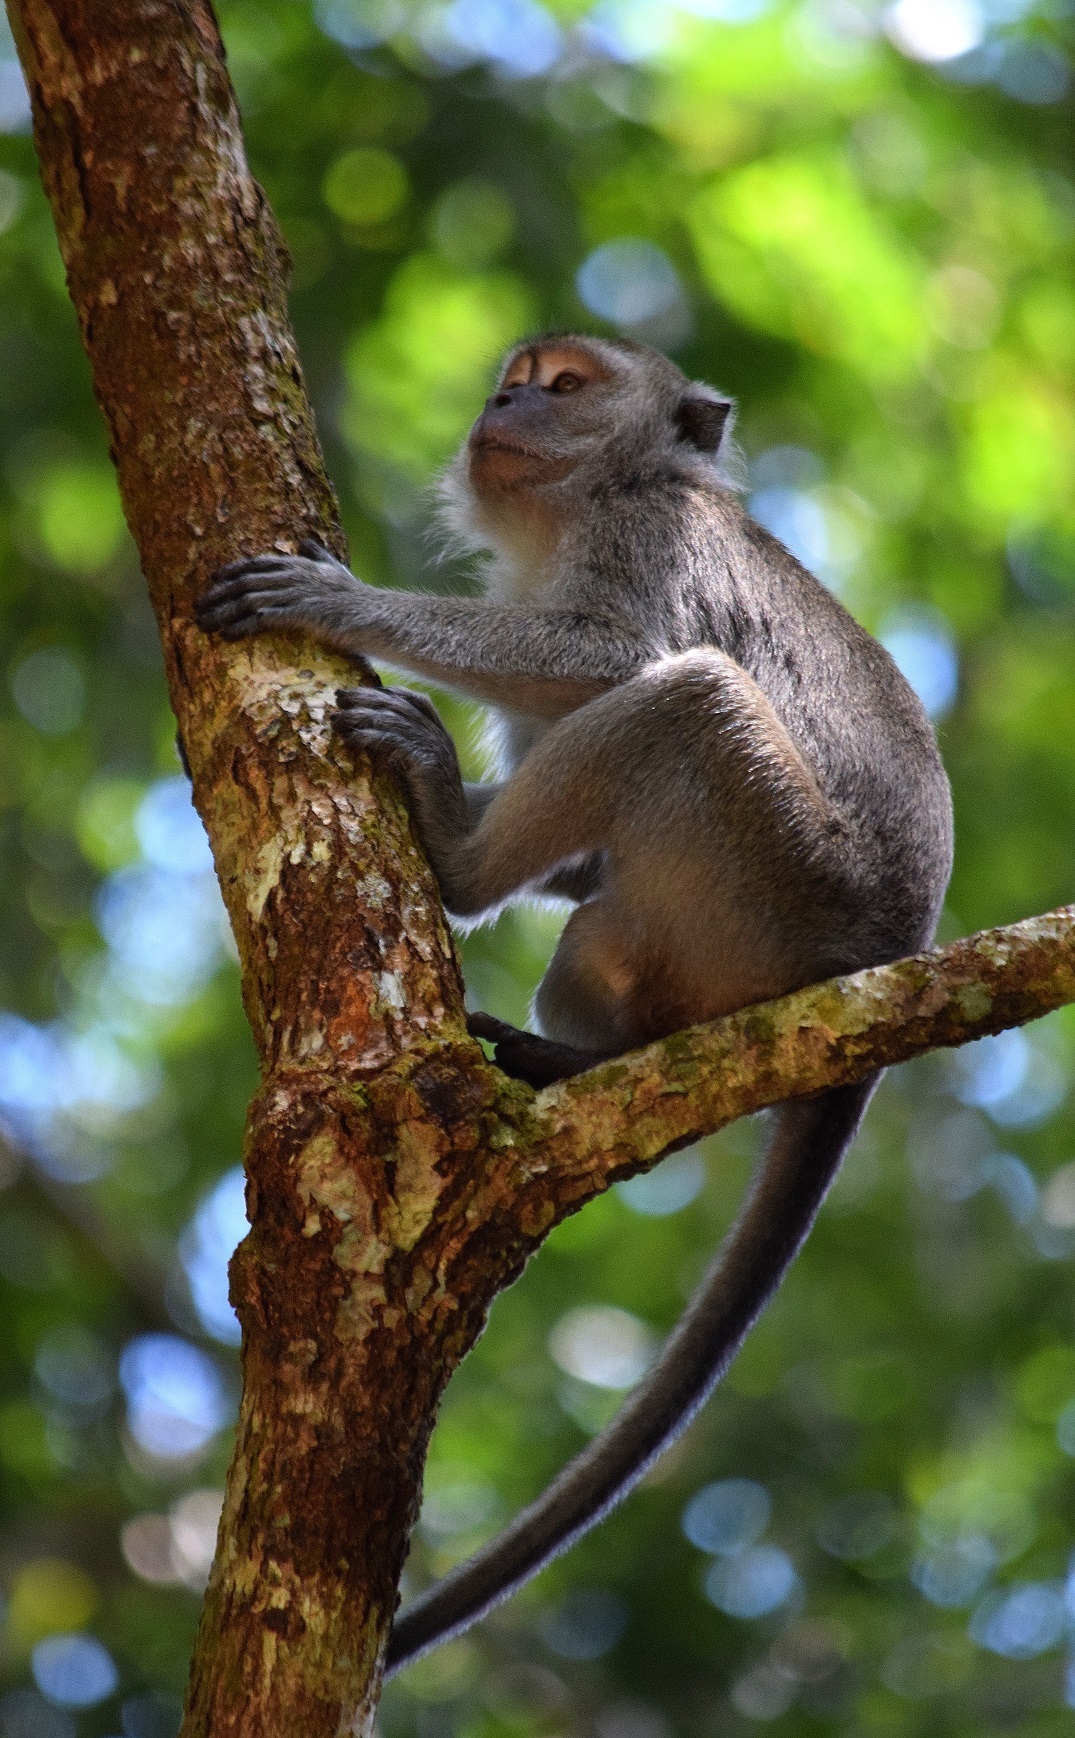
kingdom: Animalia
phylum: Chordata
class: Mammalia
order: Primates
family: Cercopithecidae
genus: Macaca
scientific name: Macaca fascicularis
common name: Crab-eating macaque
